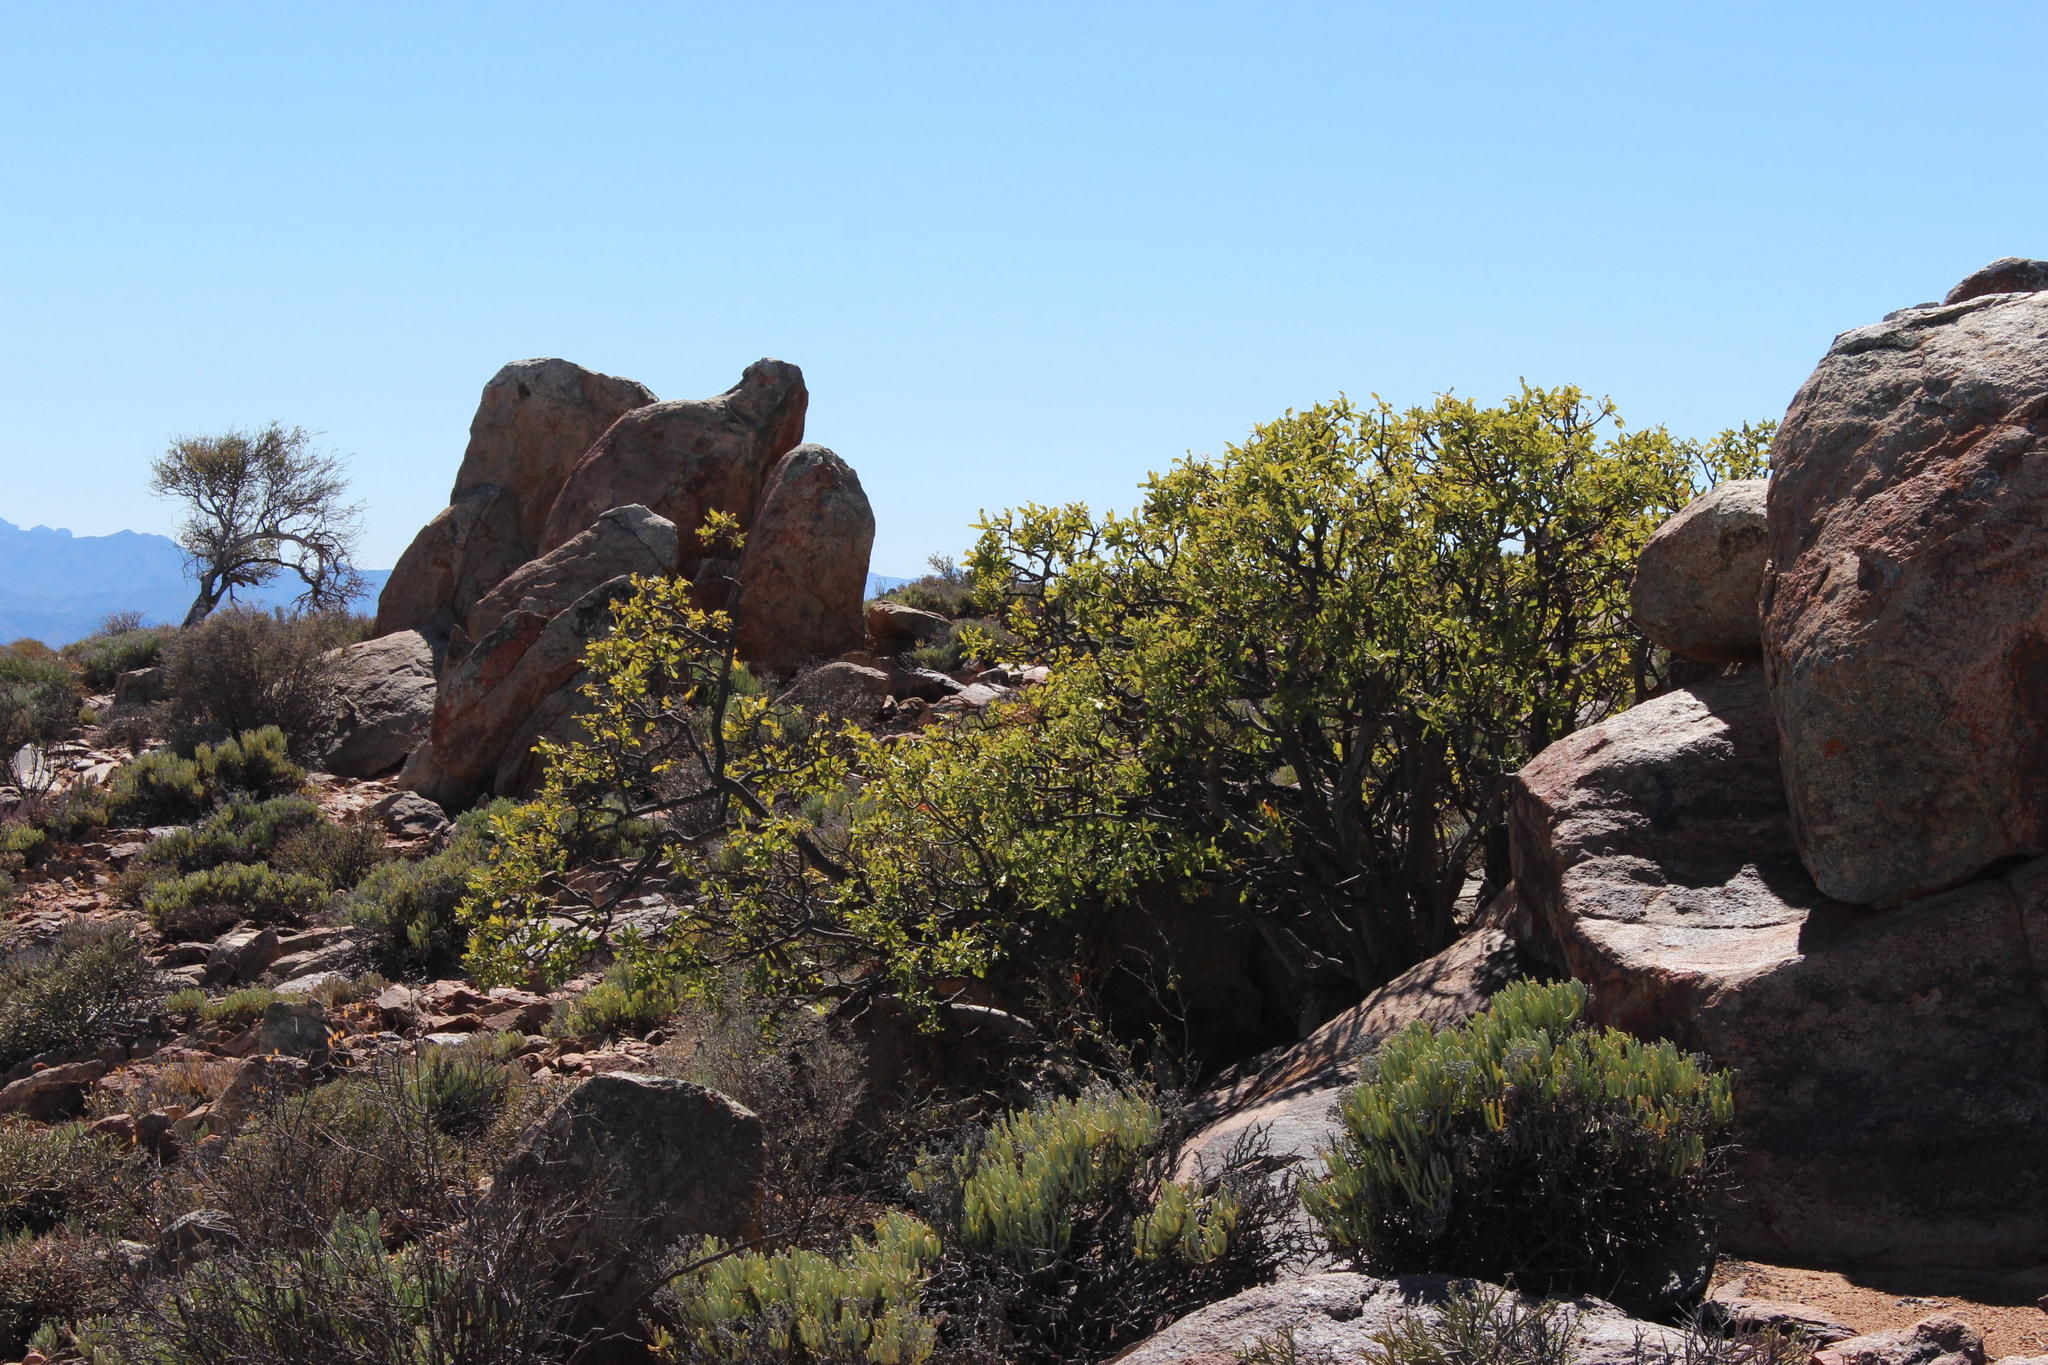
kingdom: Plantae
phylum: Tracheophyta
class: Magnoliopsida
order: Sapindales
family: Anacardiaceae
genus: Ozoroa
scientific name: Ozoroa dispar
